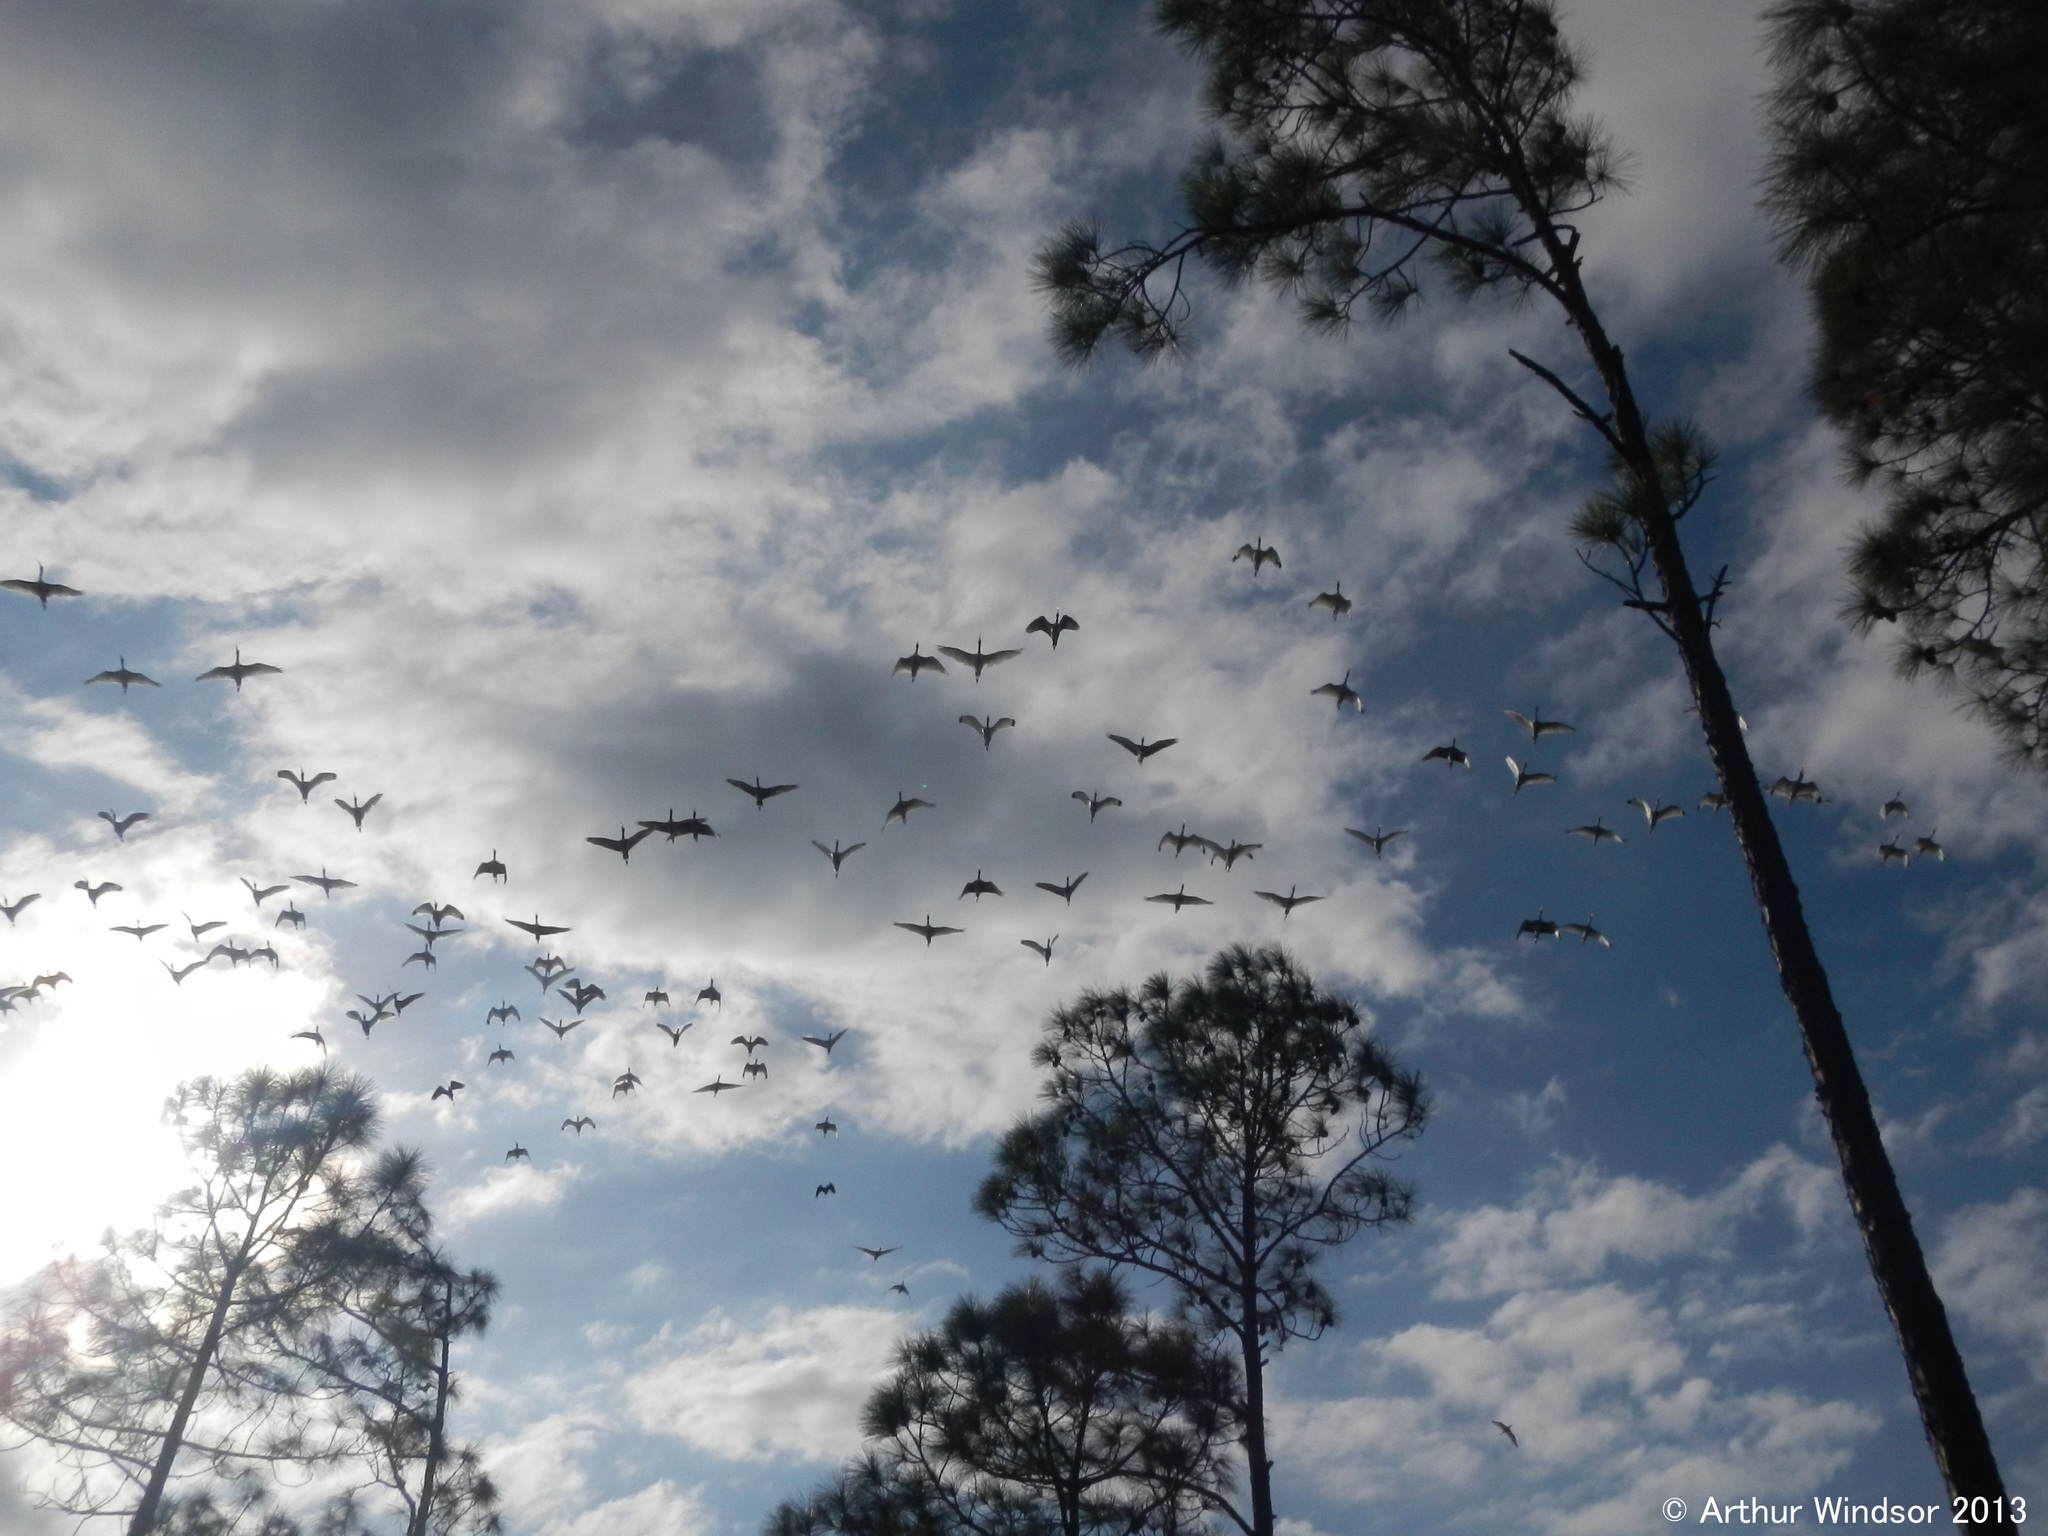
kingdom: Animalia
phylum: Chordata
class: Aves
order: Pelecaniformes
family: Threskiornithidae
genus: Eudocimus
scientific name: Eudocimus albus
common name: White ibis
